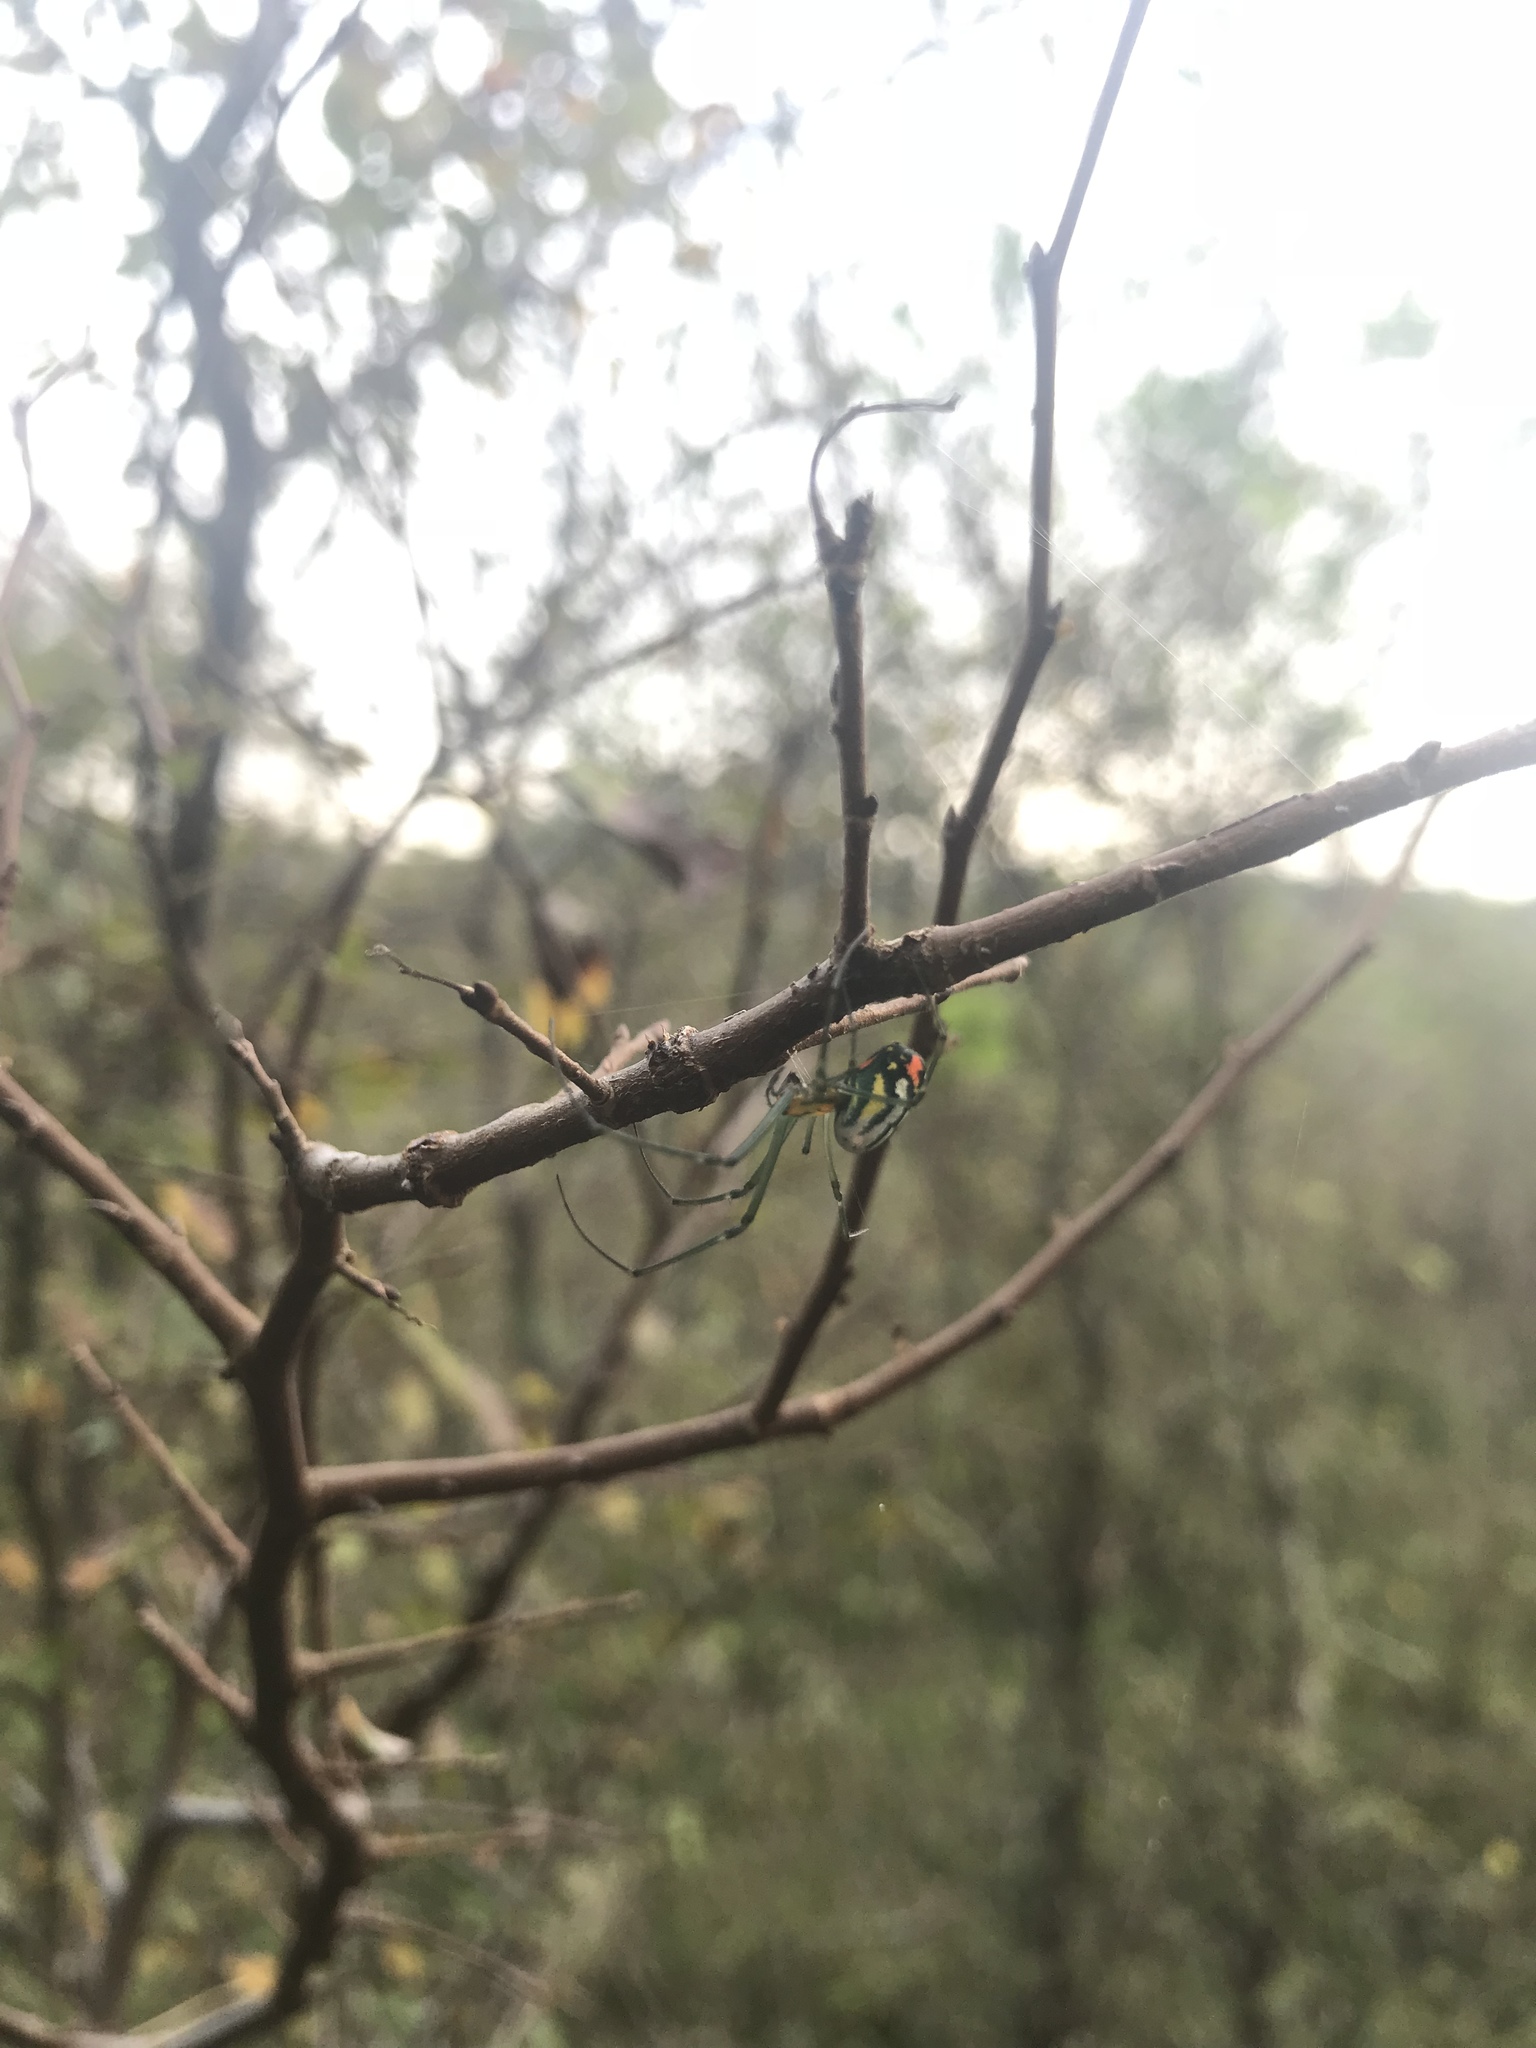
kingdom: Animalia
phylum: Arthropoda
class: Arachnida
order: Araneae
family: Tetragnathidae
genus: Leucauge
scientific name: Leucauge argyrobapta
